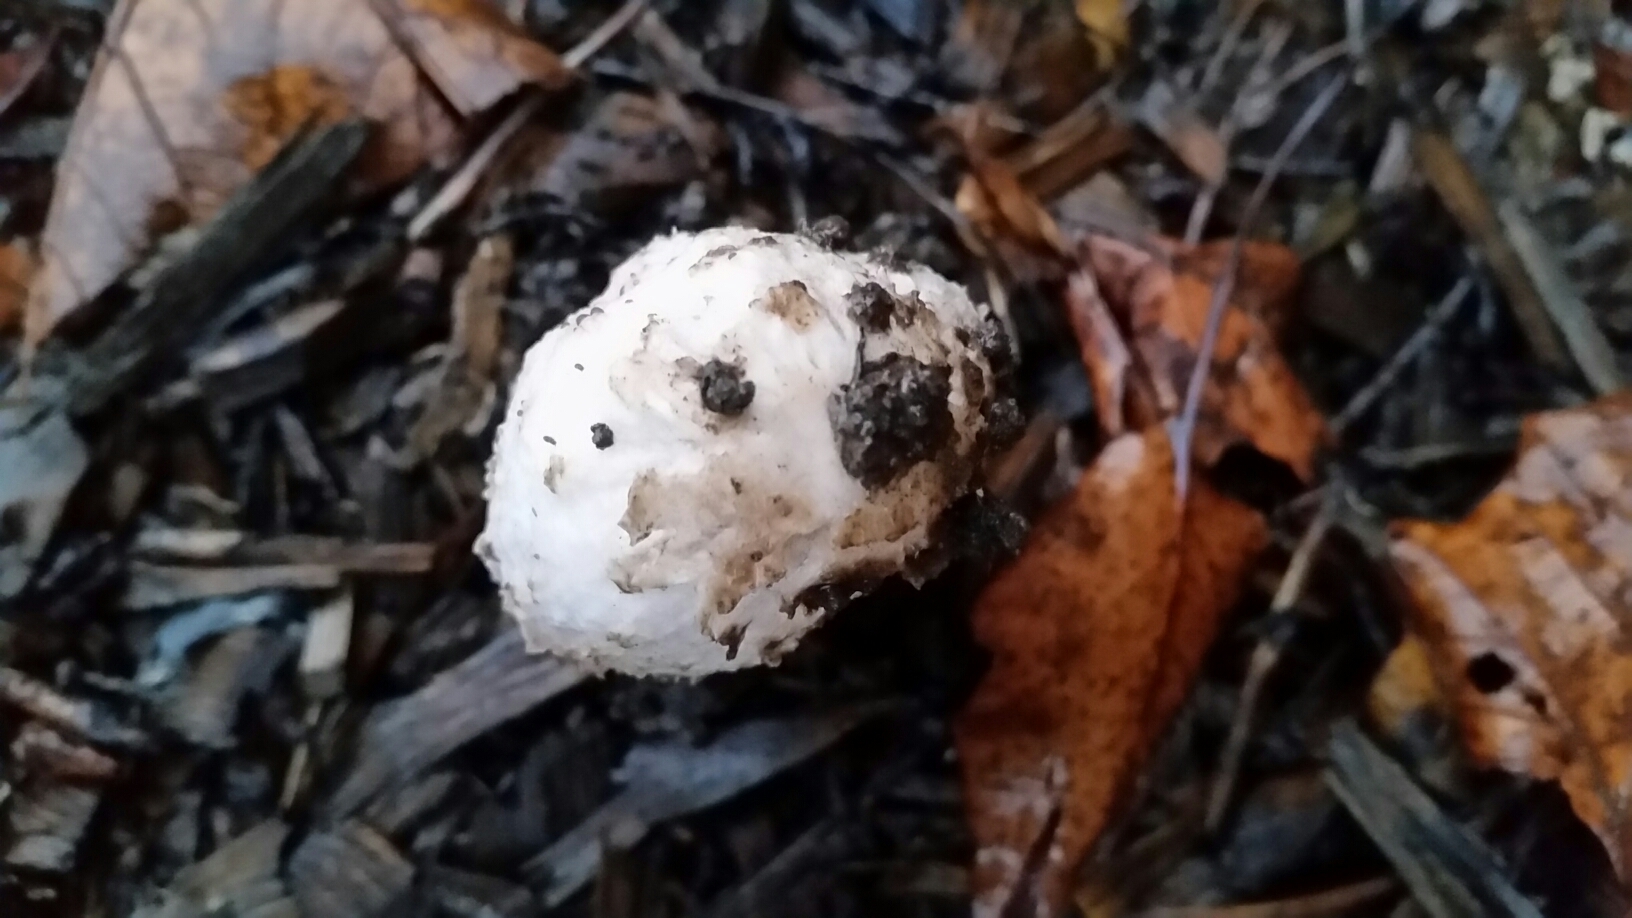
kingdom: Fungi
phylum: Basidiomycota
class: Agaricomycetes
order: Agaricales
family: Agaricaceae
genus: Coprinus
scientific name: Coprinus comatus
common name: Lawyer's wig
